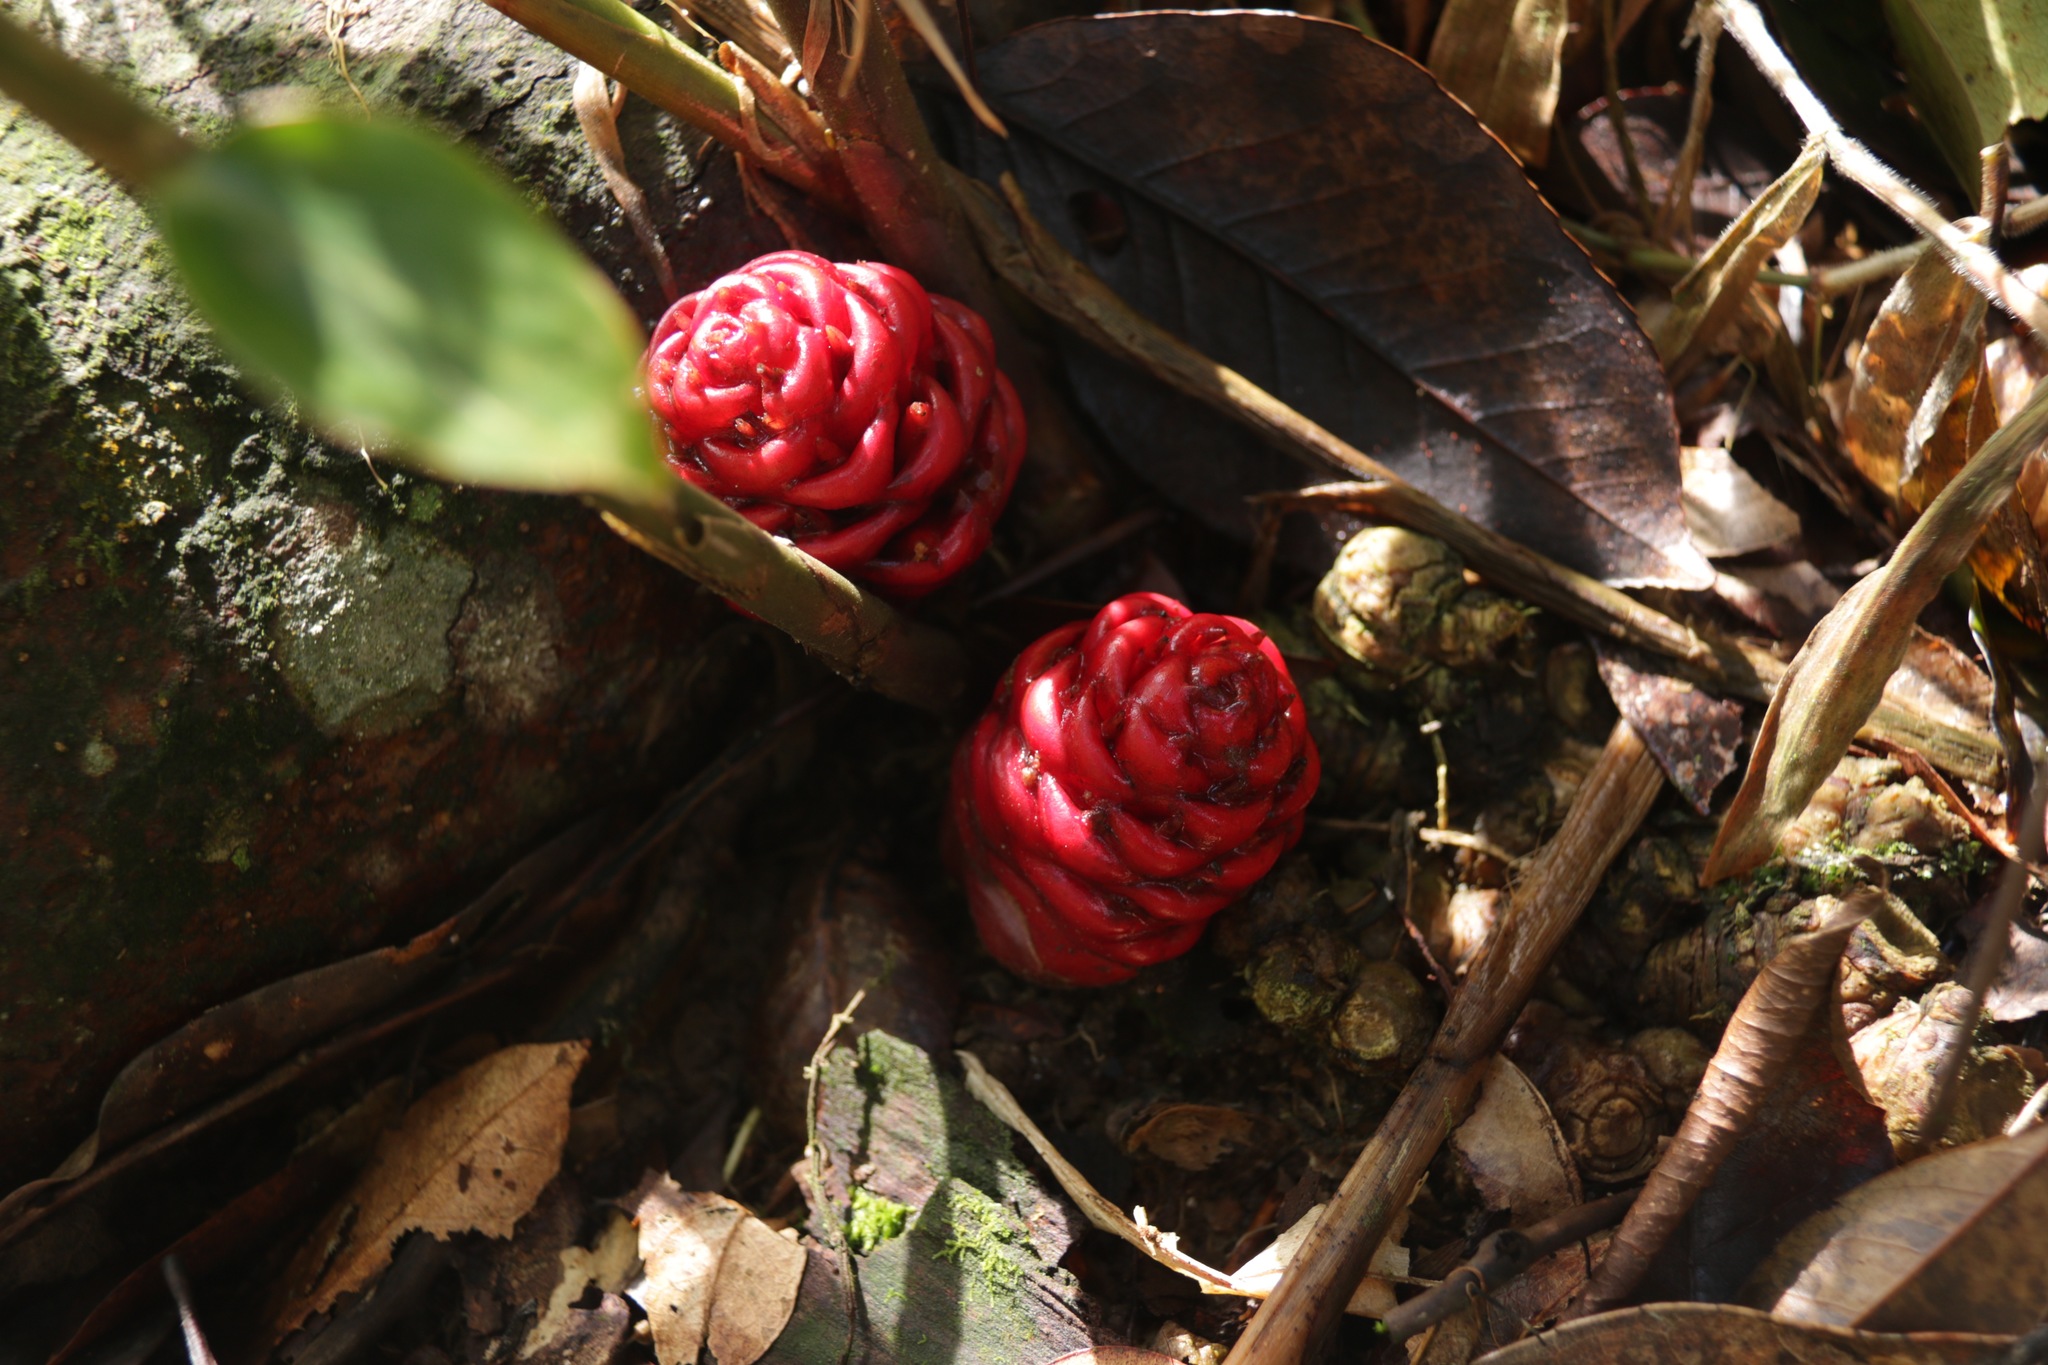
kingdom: Plantae
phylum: Tracheophyta
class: Liliopsida
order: Zingiberales
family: Zingiberaceae
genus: Zingiber
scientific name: Zingiber zerumbet
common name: Bitter ginger
